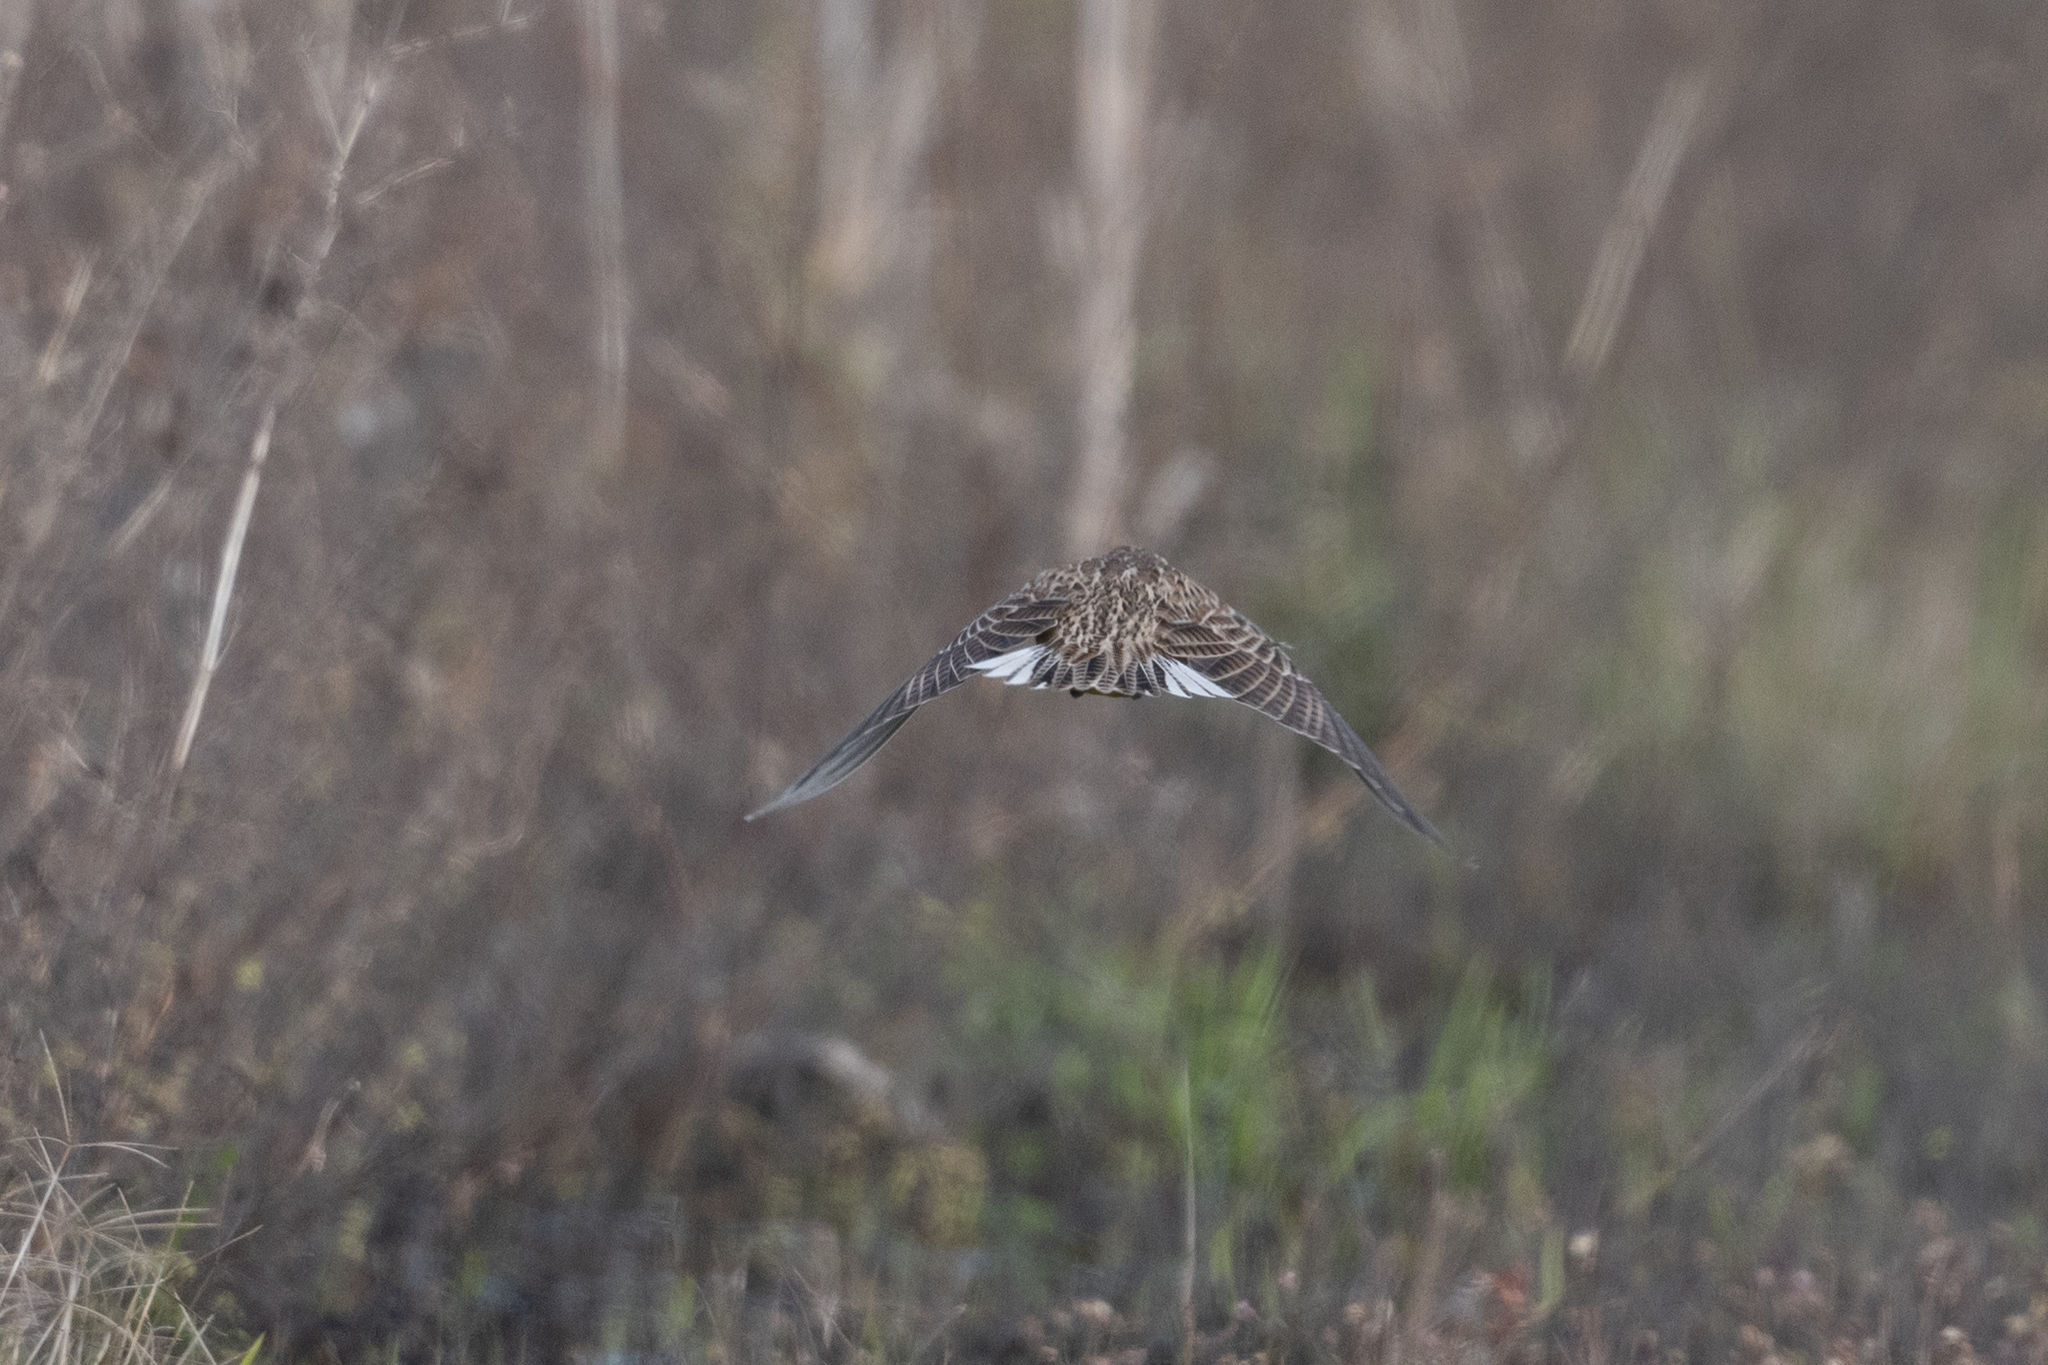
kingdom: Animalia
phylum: Chordata
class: Aves
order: Passeriformes
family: Icteridae
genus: Sturnella
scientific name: Sturnella neglecta
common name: Western meadowlark
